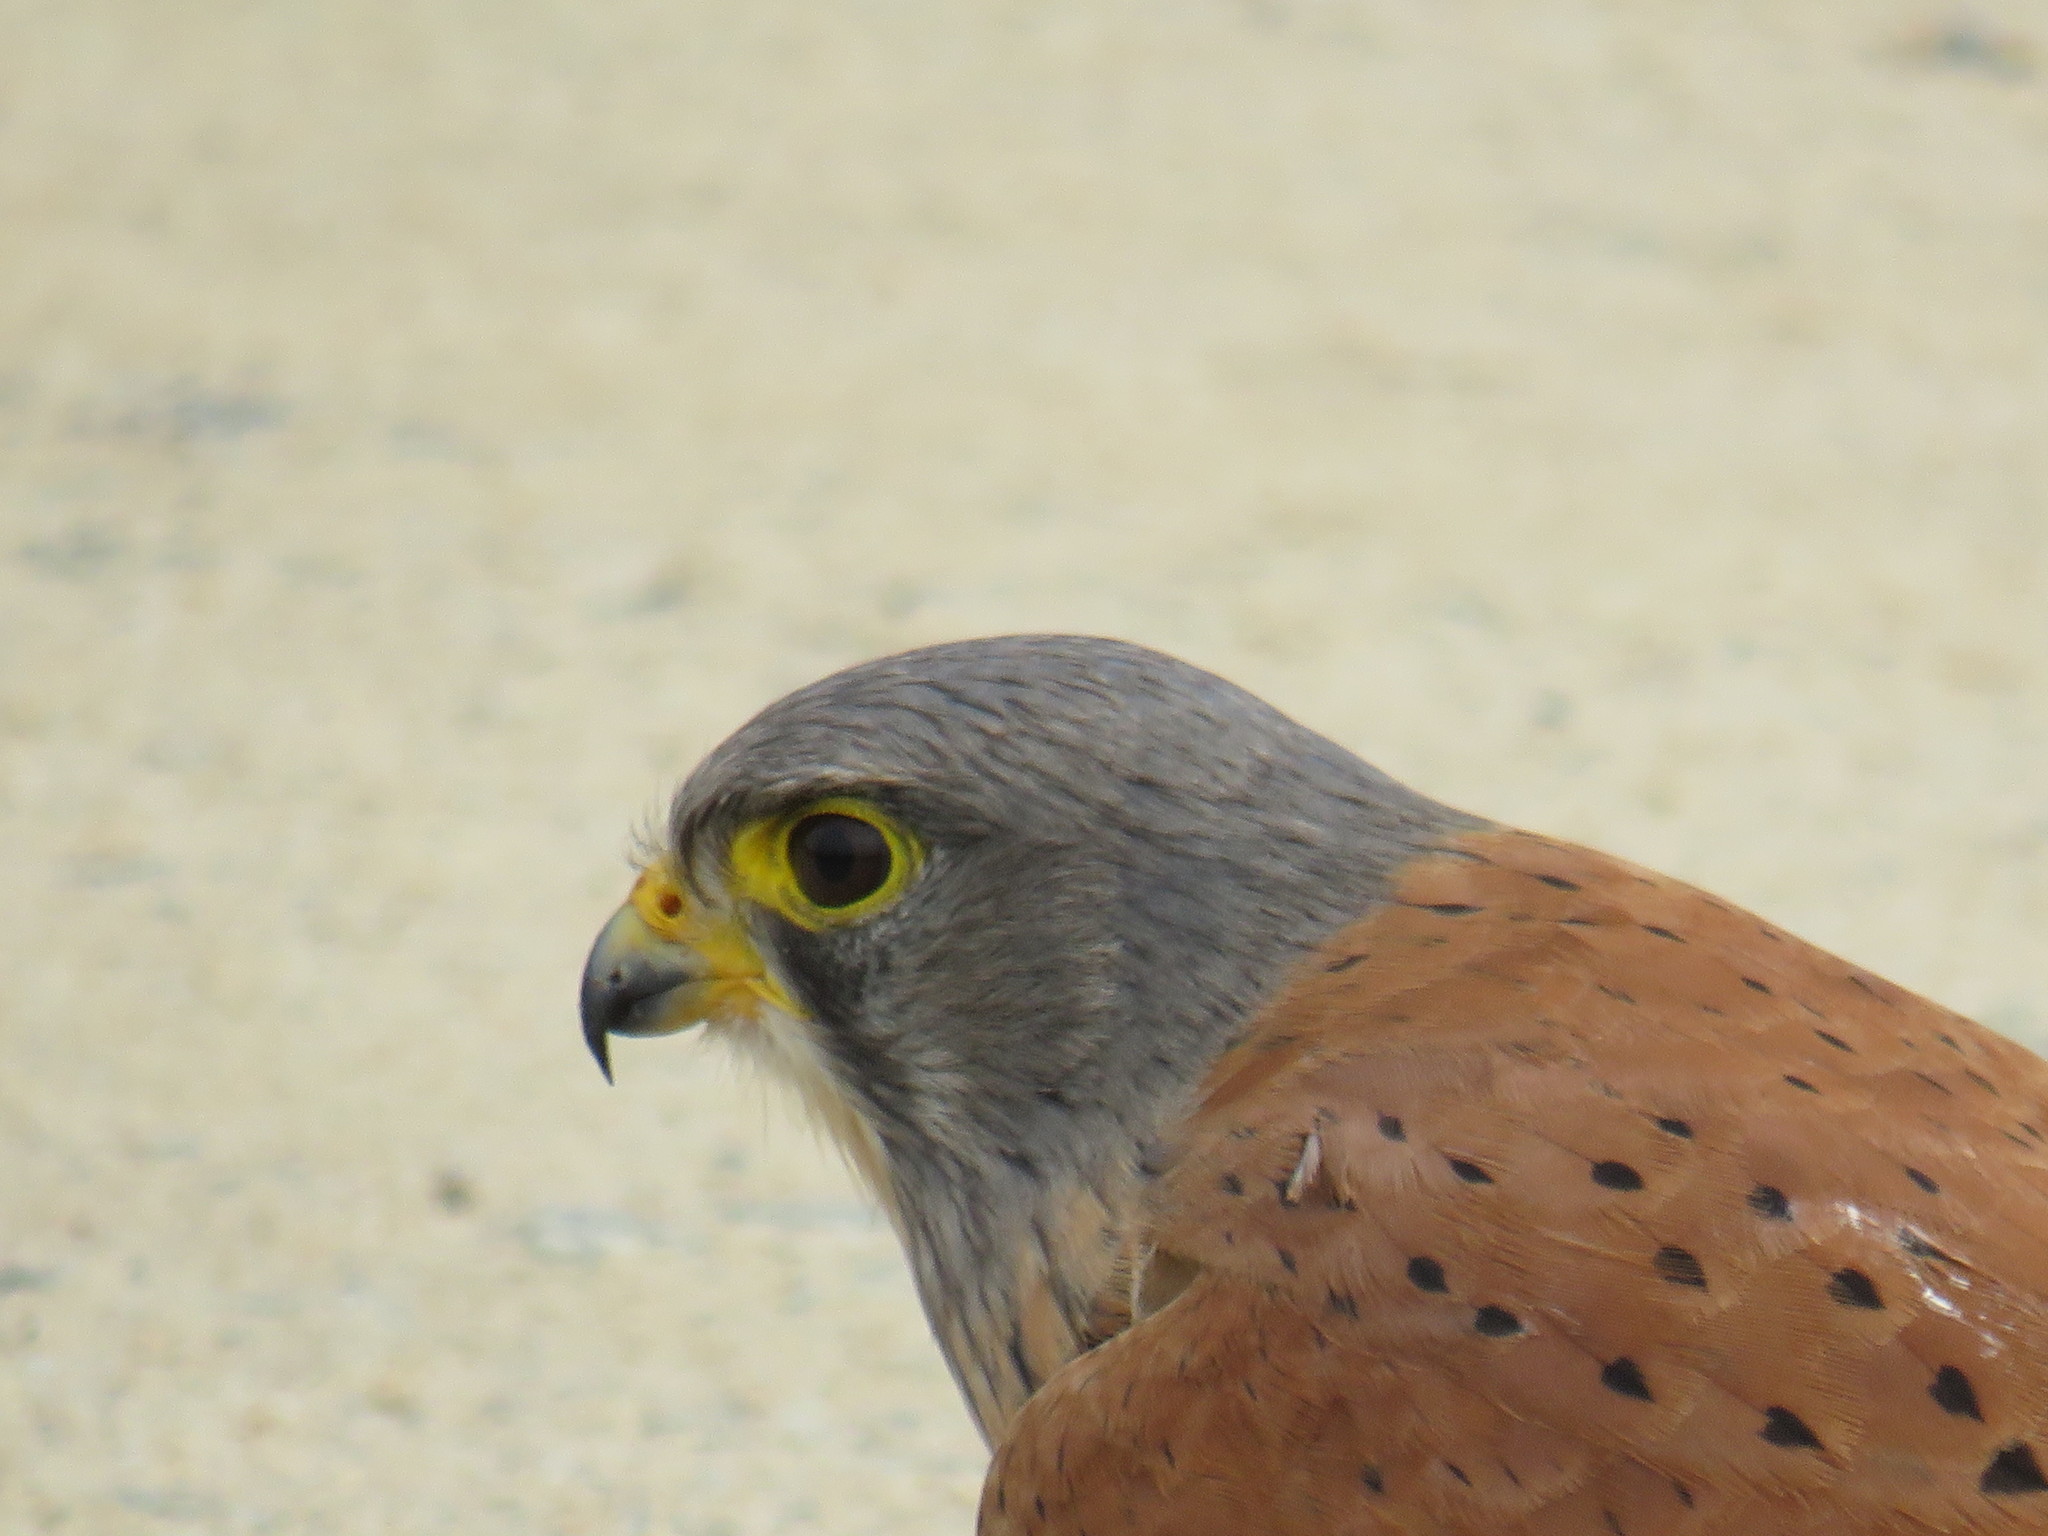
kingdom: Animalia
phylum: Chordata
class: Aves
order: Falconiformes
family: Falconidae
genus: Falco
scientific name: Falco rupicolus
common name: Rock kestrel
